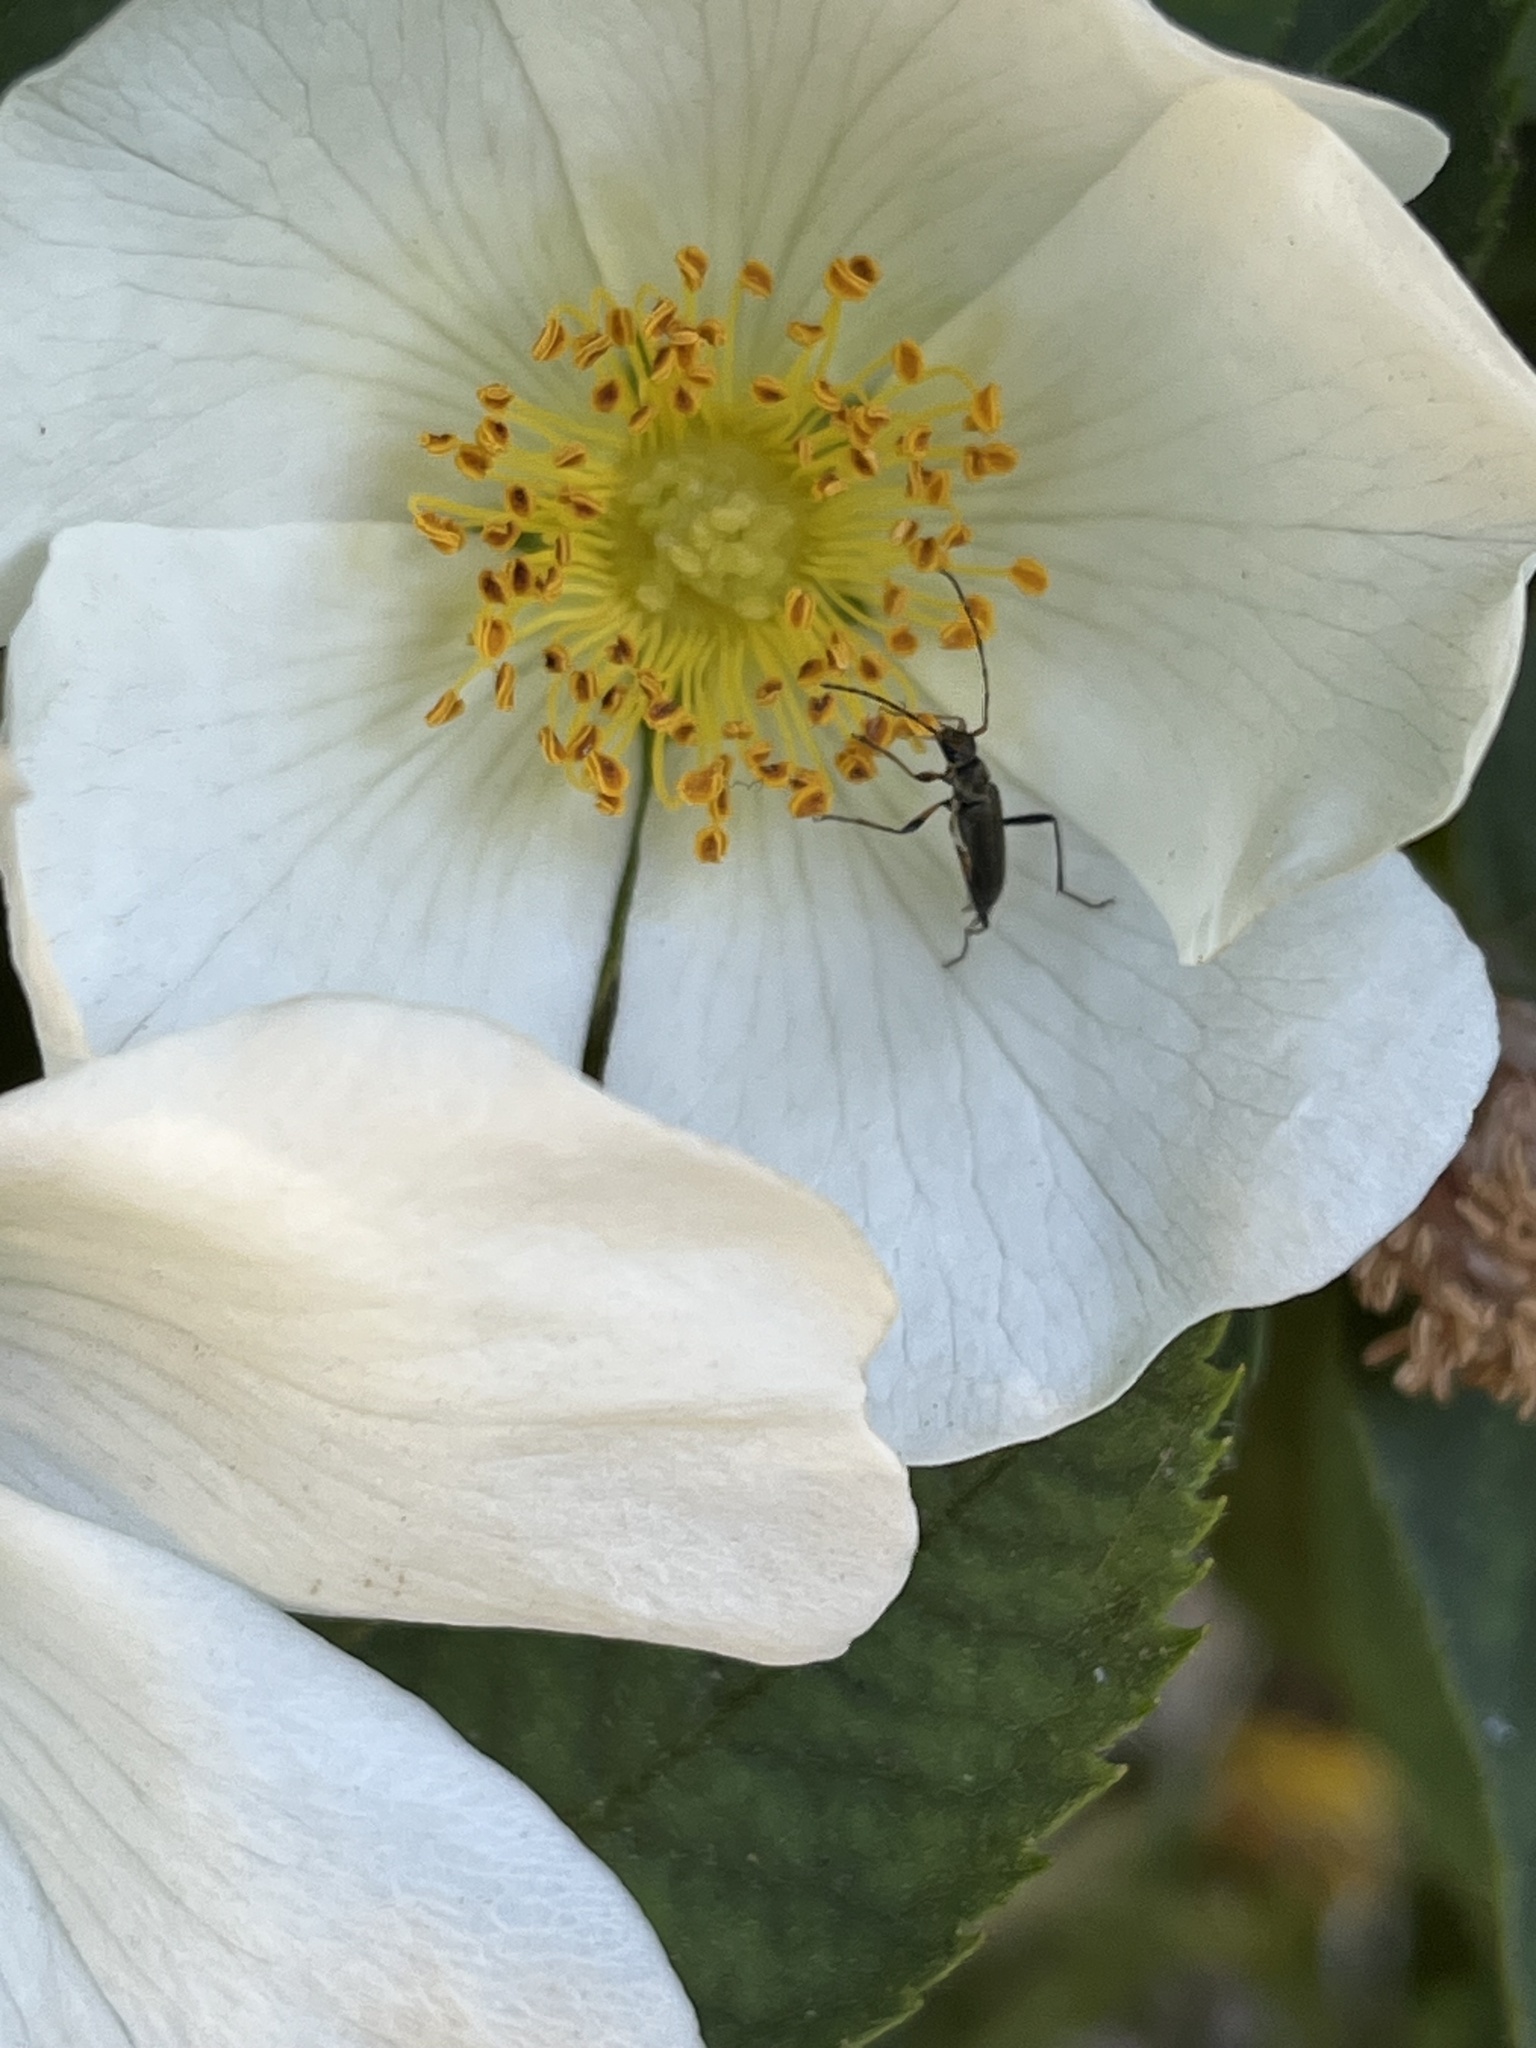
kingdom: Animalia
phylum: Arthropoda
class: Insecta
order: Coleoptera
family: Cerambycidae
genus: Grammoptera
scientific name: Grammoptera ruficornis
